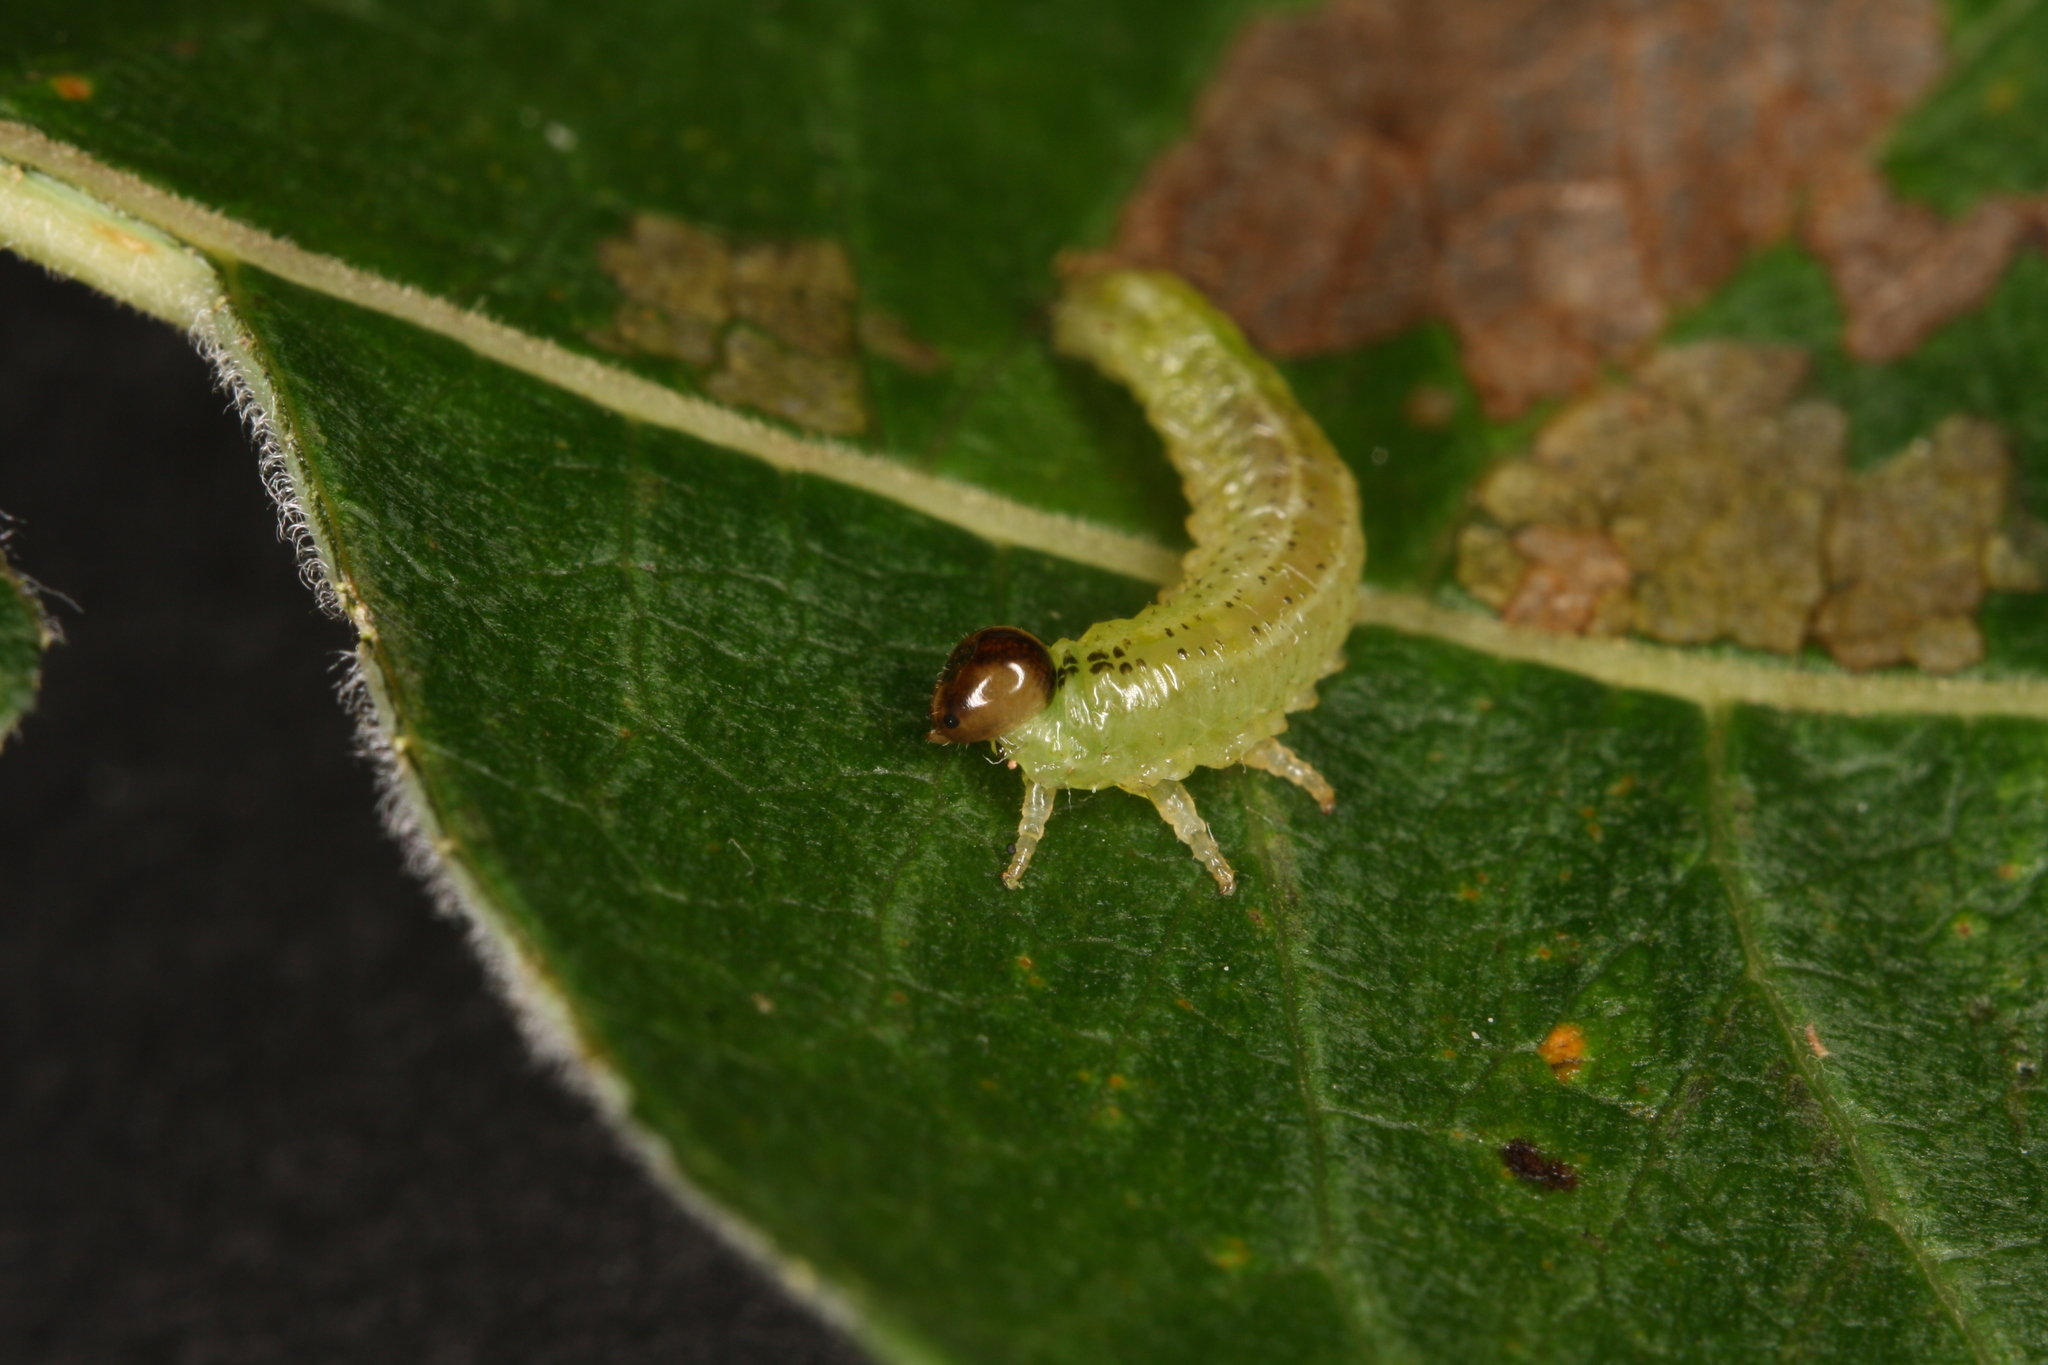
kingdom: Animalia
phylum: Arthropoda
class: Insecta
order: Hymenoptera
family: Argidae
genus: Arge
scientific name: Arge ustulata
